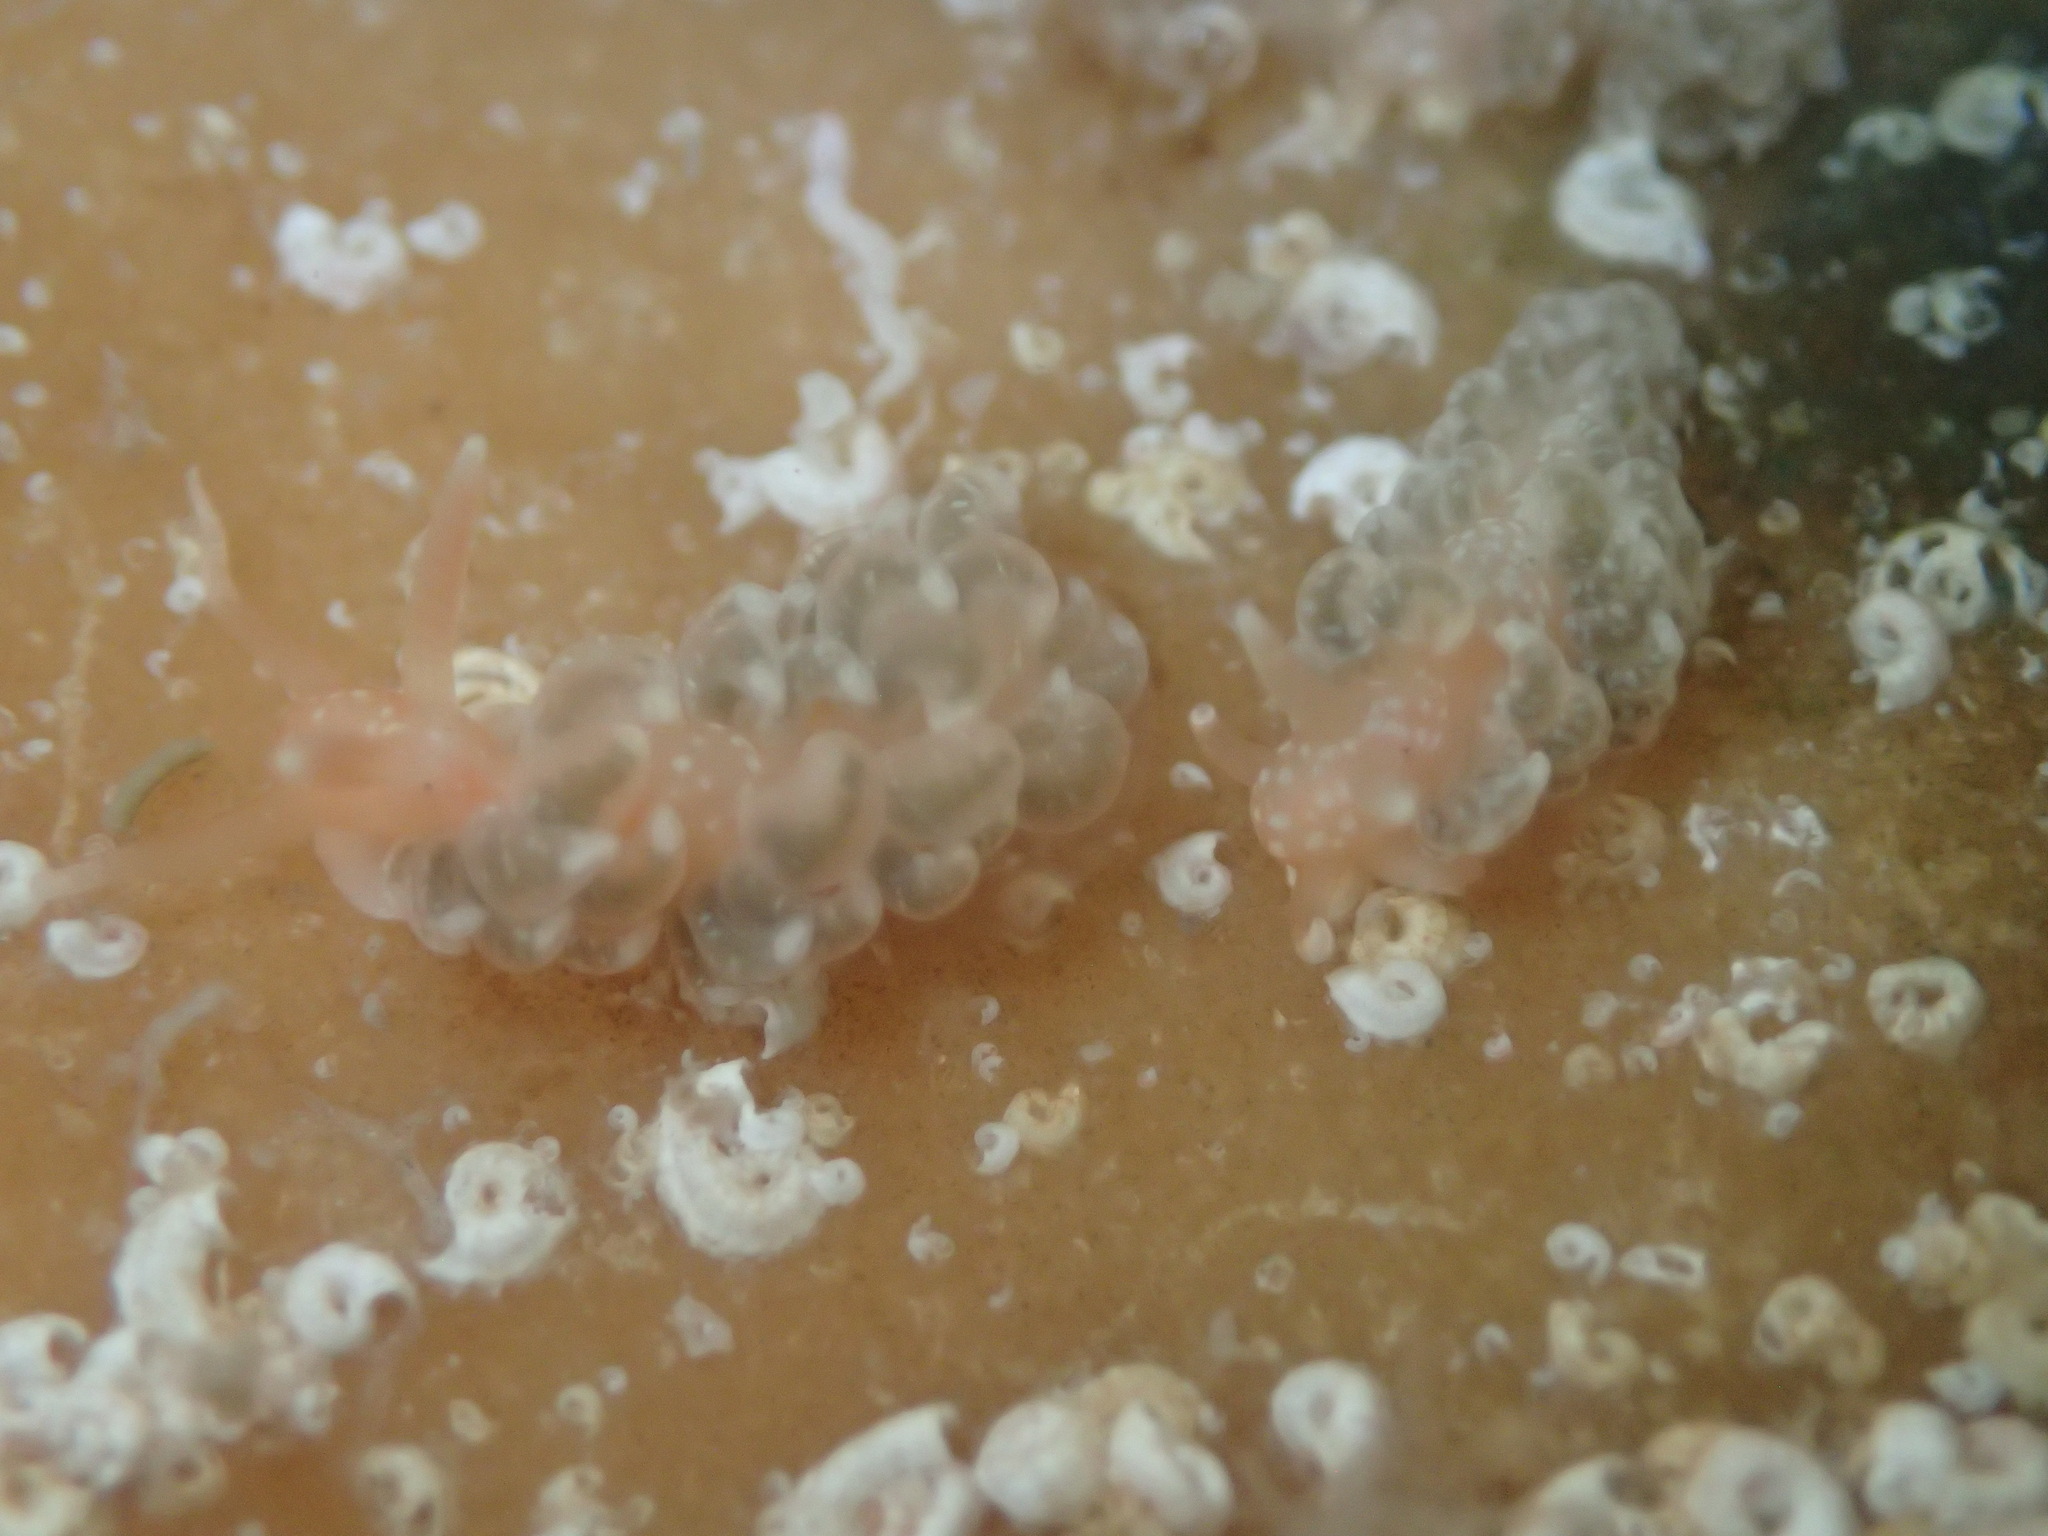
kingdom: Animalia
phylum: Mollusca
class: Gastropoda
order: Nudibranchia
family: Aeolidiidae
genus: Spurilla
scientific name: Spurilla braziliana
